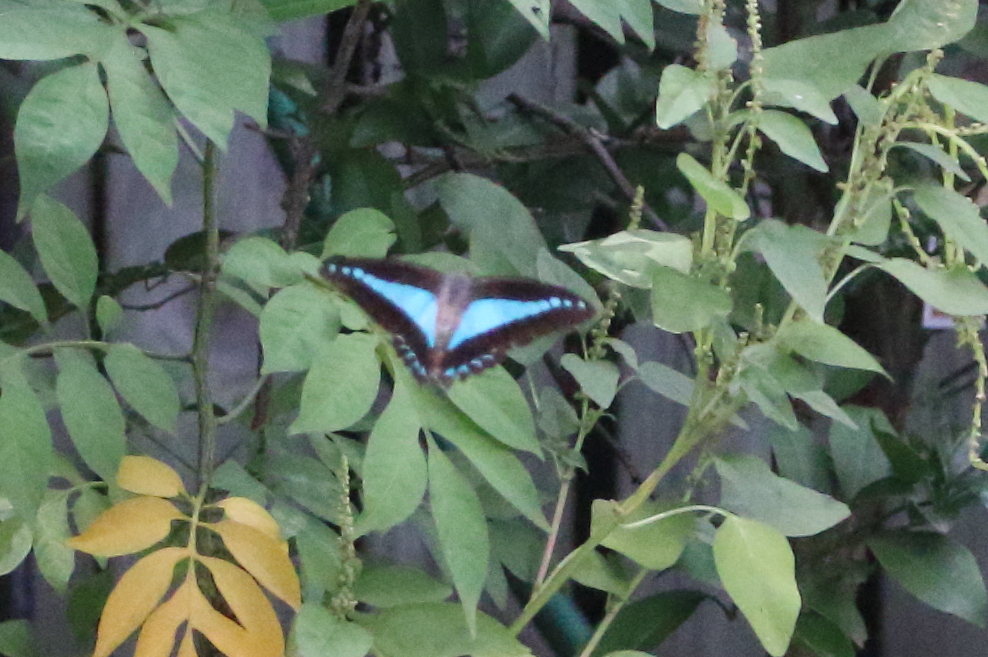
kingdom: Animalia
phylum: Arthropoda
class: Insecta
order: Lepidoptera
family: Papilionidae
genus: Graphium
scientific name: Graphium
